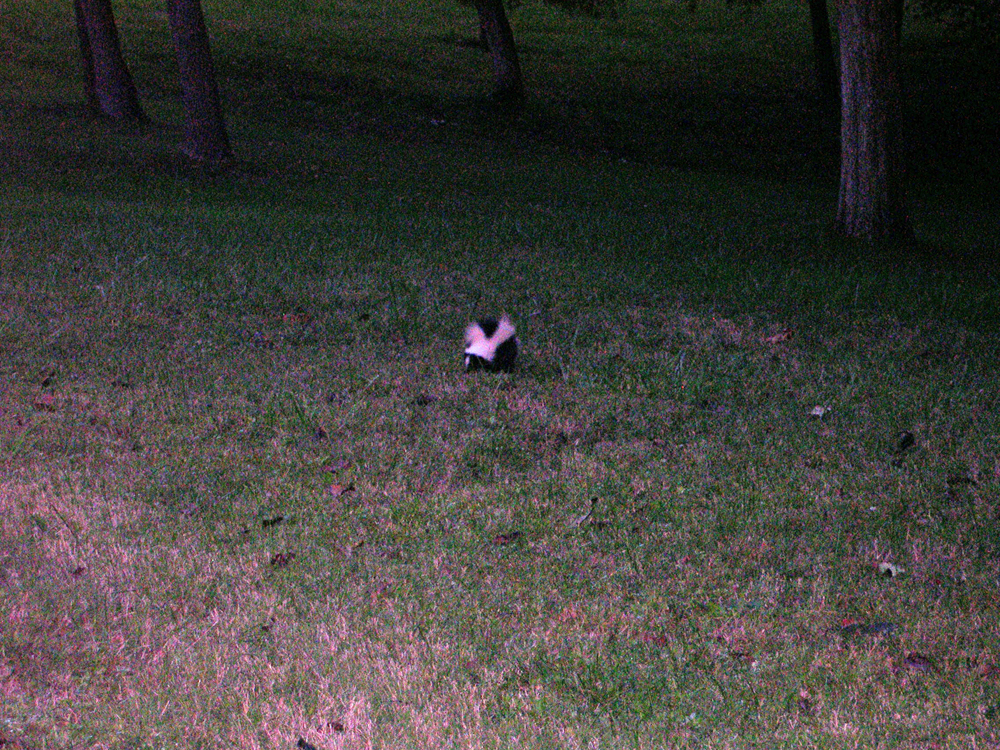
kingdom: Animalia
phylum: Chordata
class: Mammalia
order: Carnivora
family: Mephitidae
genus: Mephitis
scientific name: Mephitis mephitis
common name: Striped skunk
